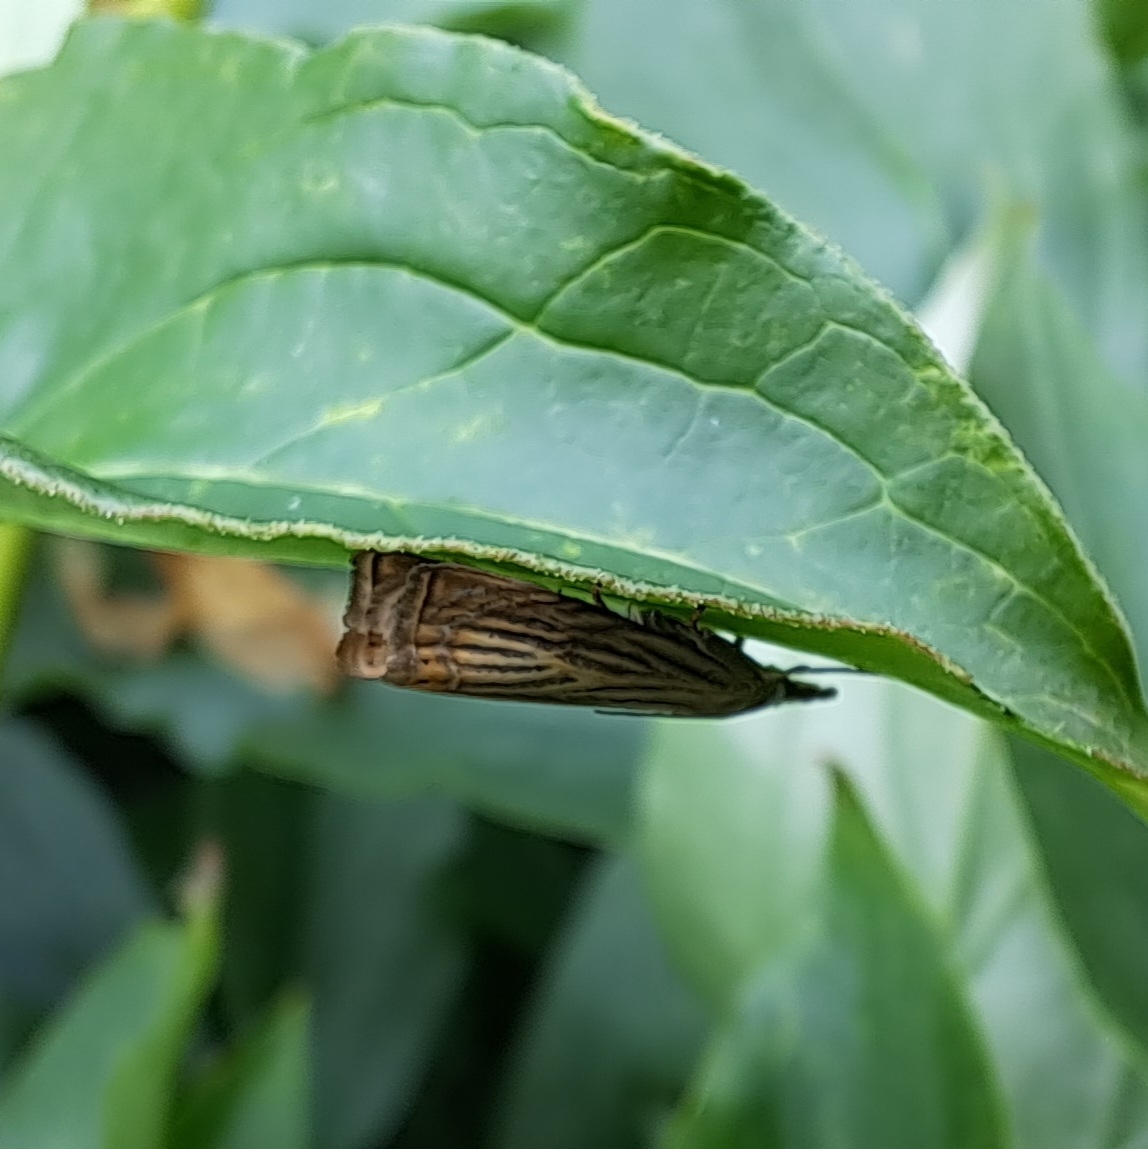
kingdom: Animalia
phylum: Arthropoda
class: Insecta
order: Lepidoptera
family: Crambidae
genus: Chrysoteuchia
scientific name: Chrysoteuchia culmella
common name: Garden grass-veneer
